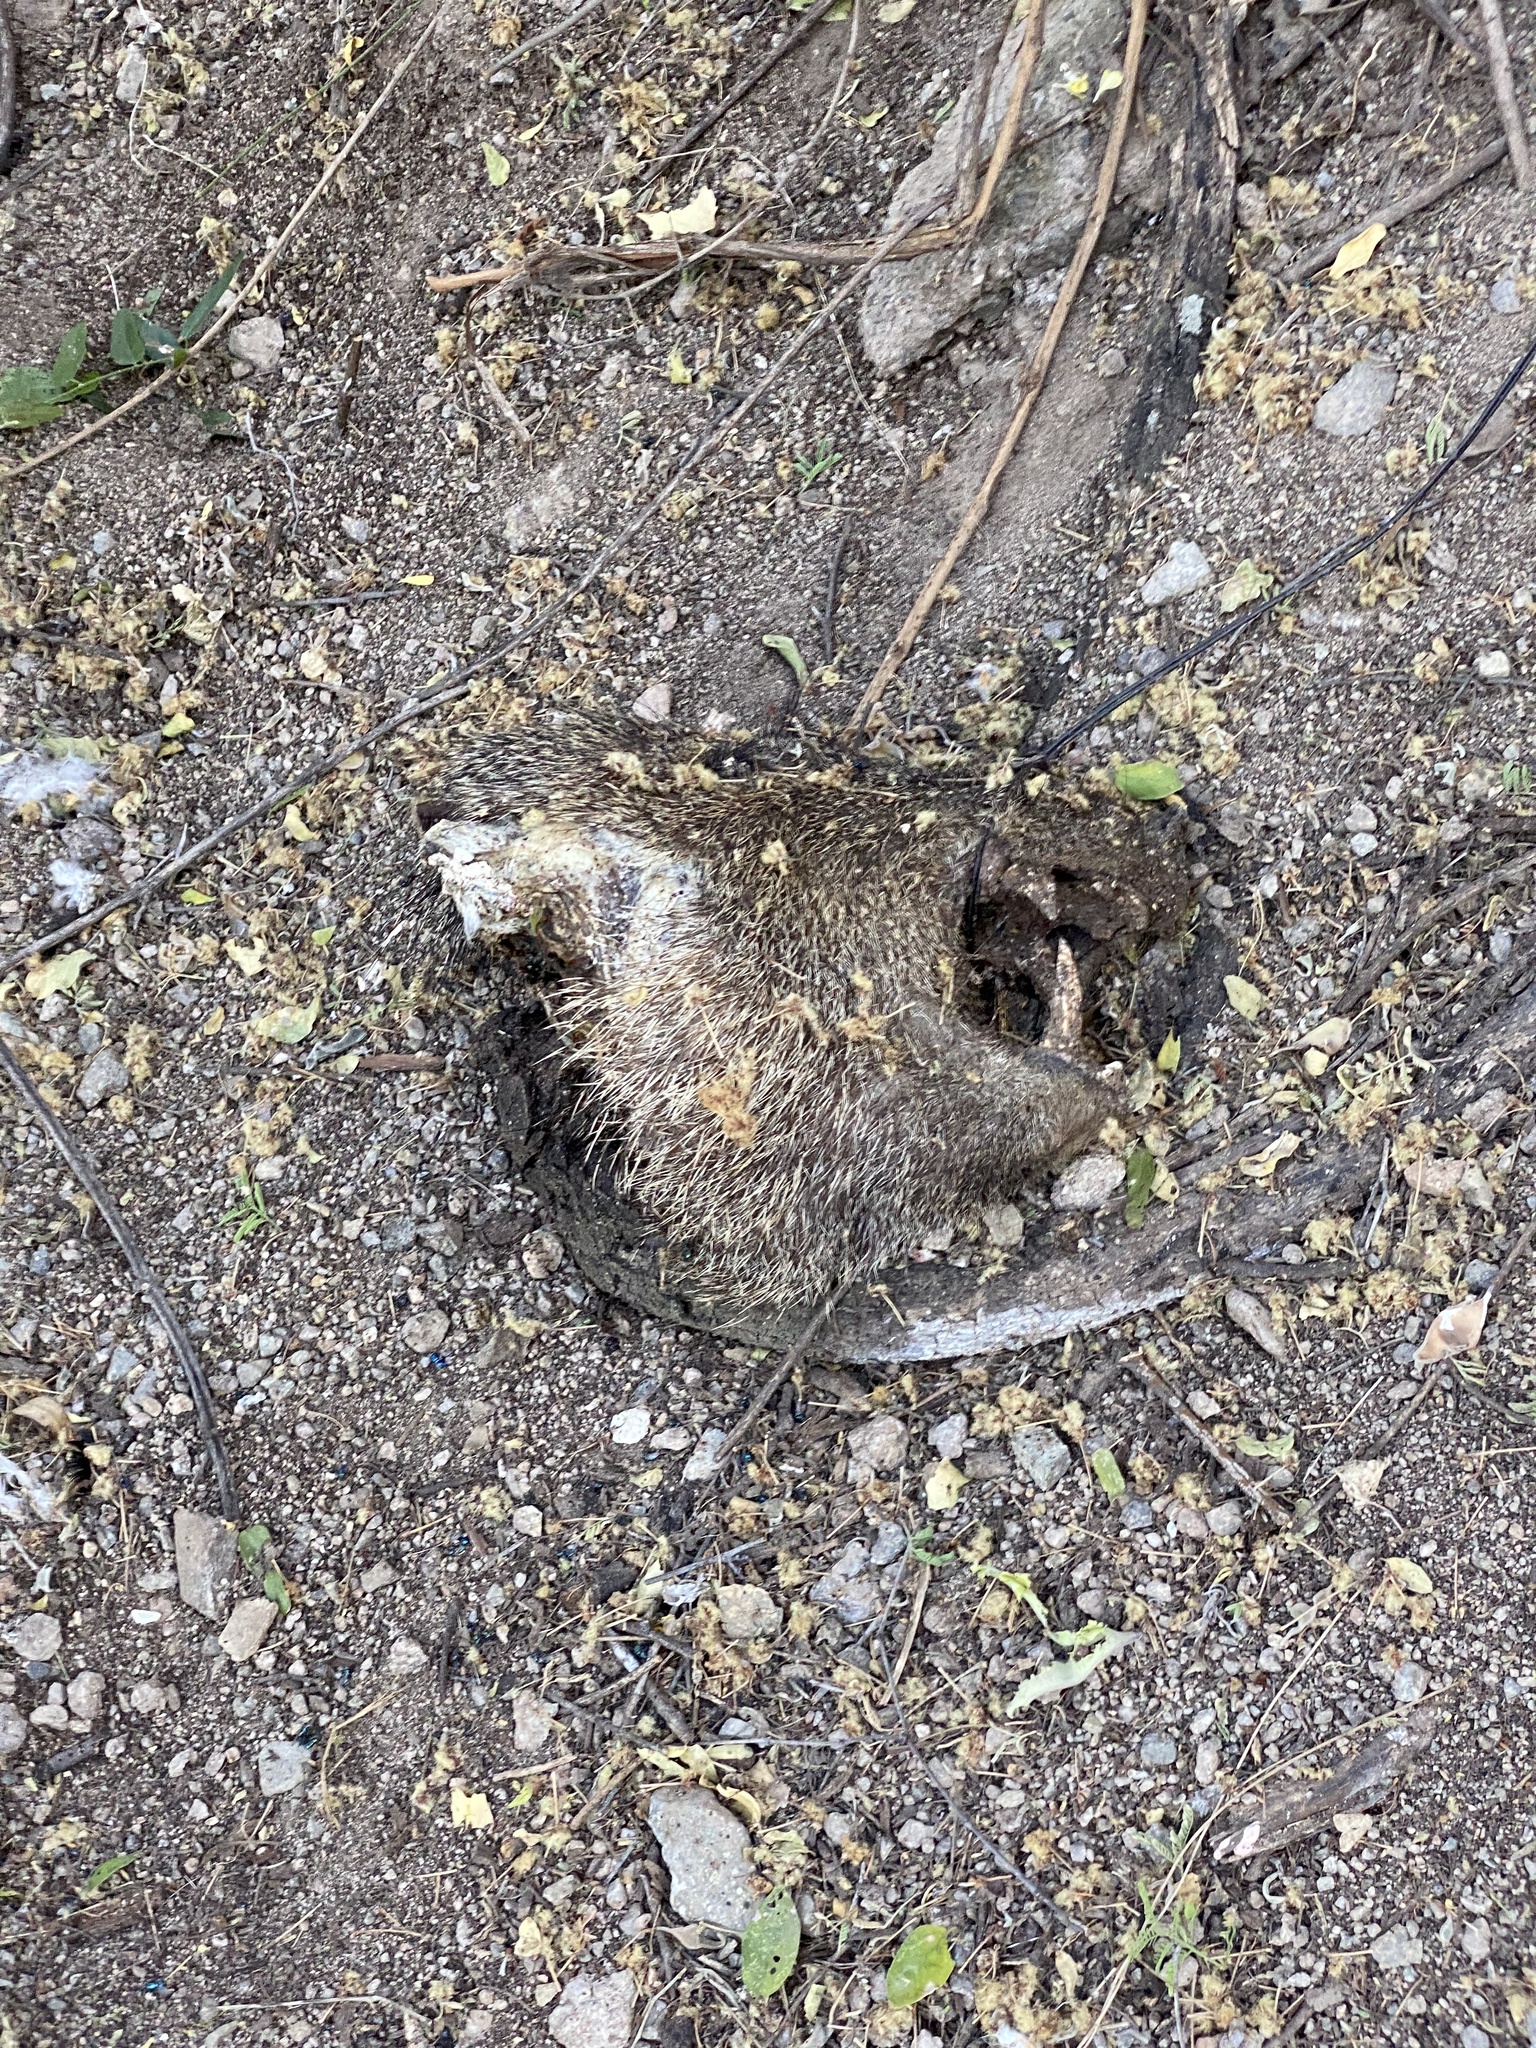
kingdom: Animalia
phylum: Chordata
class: Mammalia
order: Artiodactyla
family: Tayassuidae
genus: Pecari
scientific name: Pecari tajacu
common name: Collared peccary
